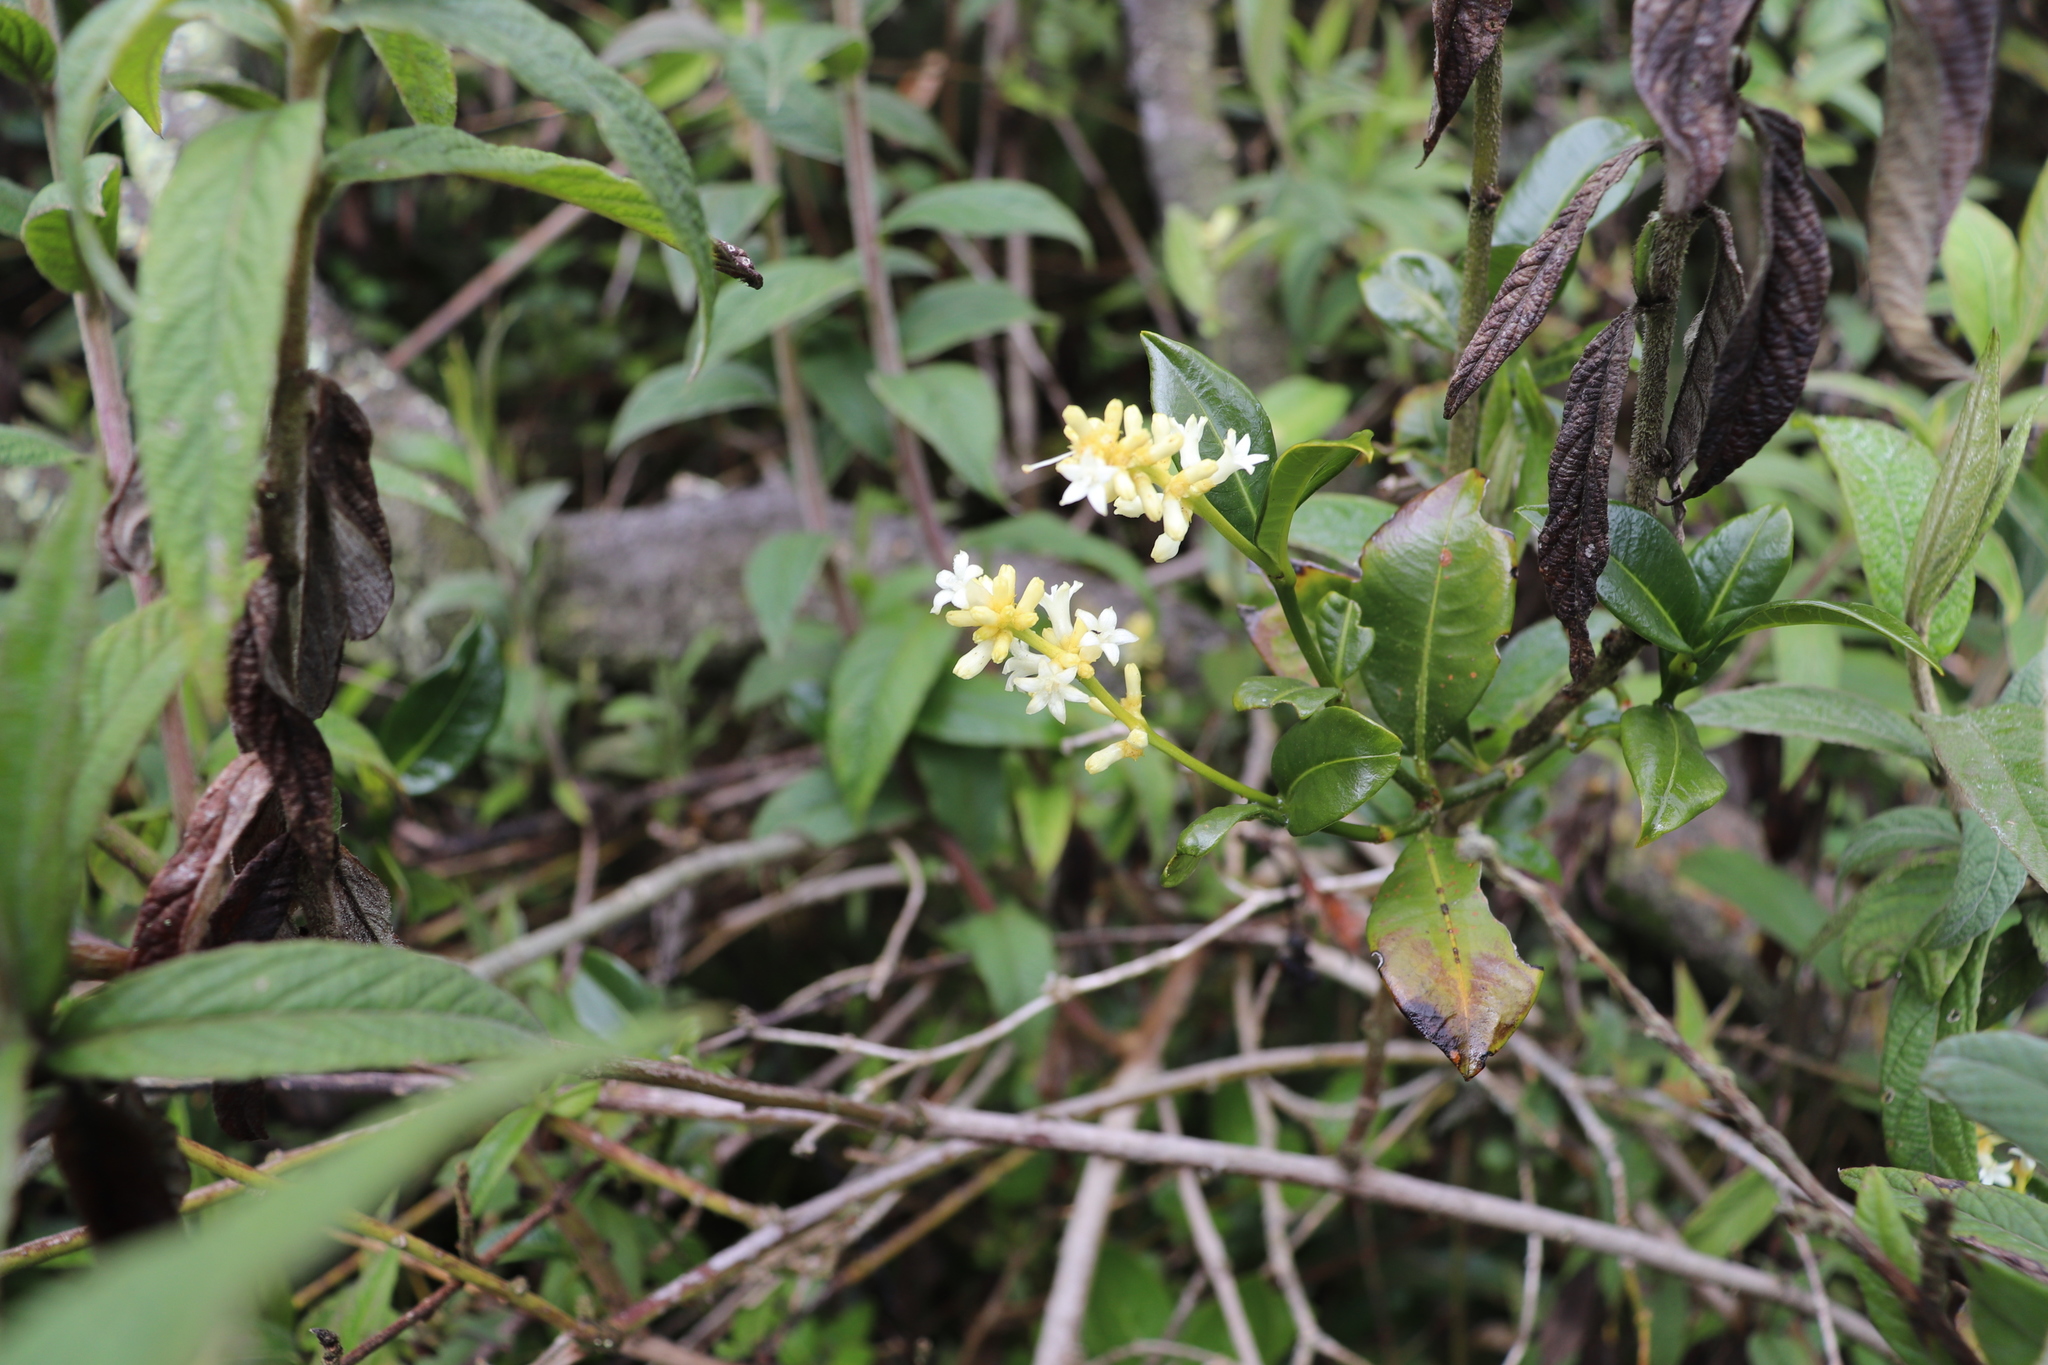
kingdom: Plantae
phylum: Tracheophyta
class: Magnoliopsida
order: Gentianales
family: Rubiaceae
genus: Palicourea
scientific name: Palicourea boqueronensis
